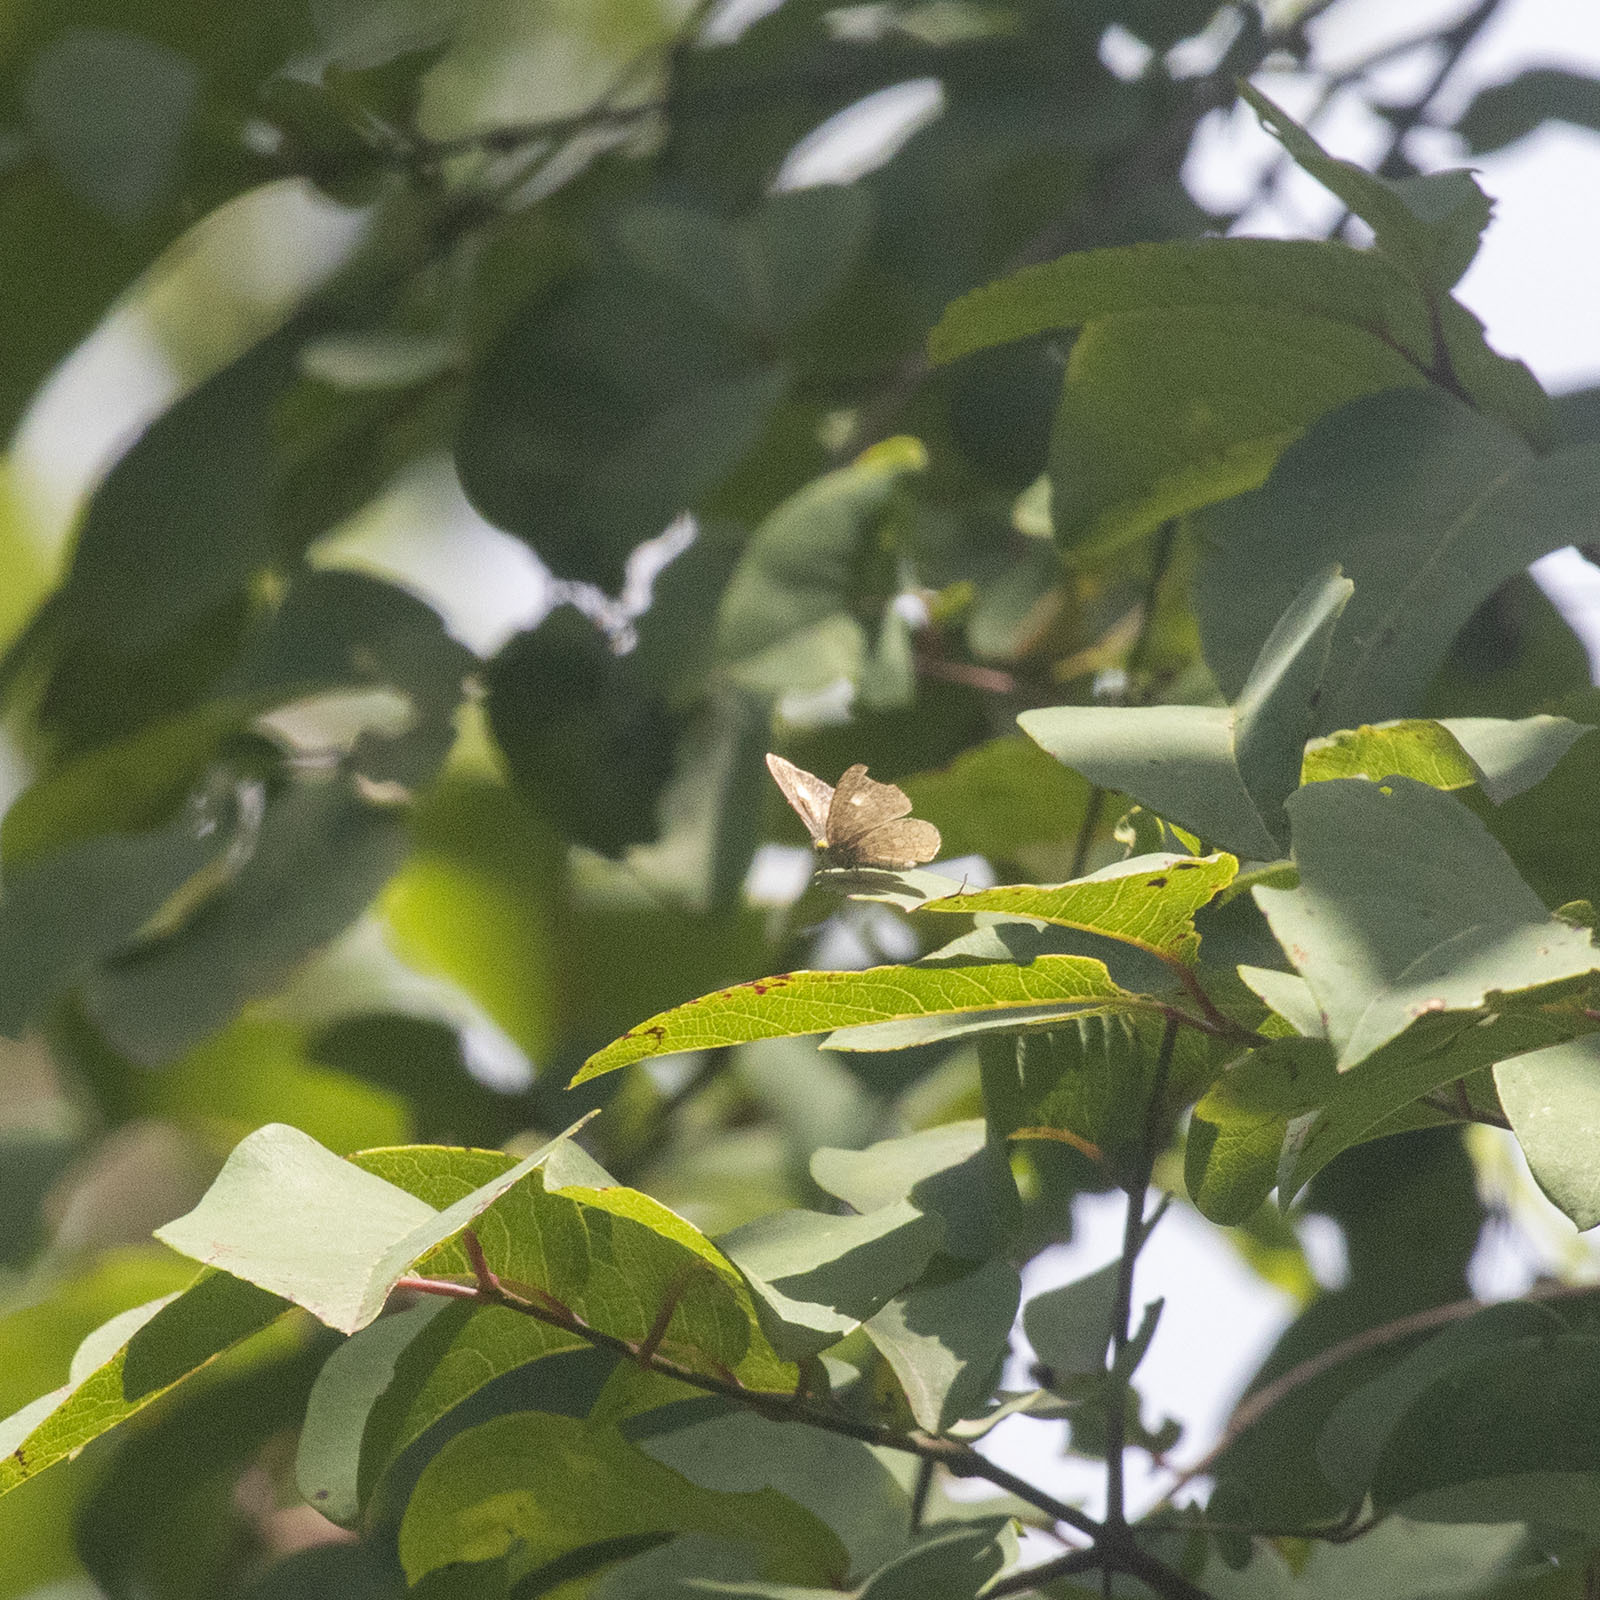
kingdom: Animalia
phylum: Arthropoda
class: Insecta
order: Lepidoptera
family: Lycaenidae
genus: Spalgis
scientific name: Spalgis epius
